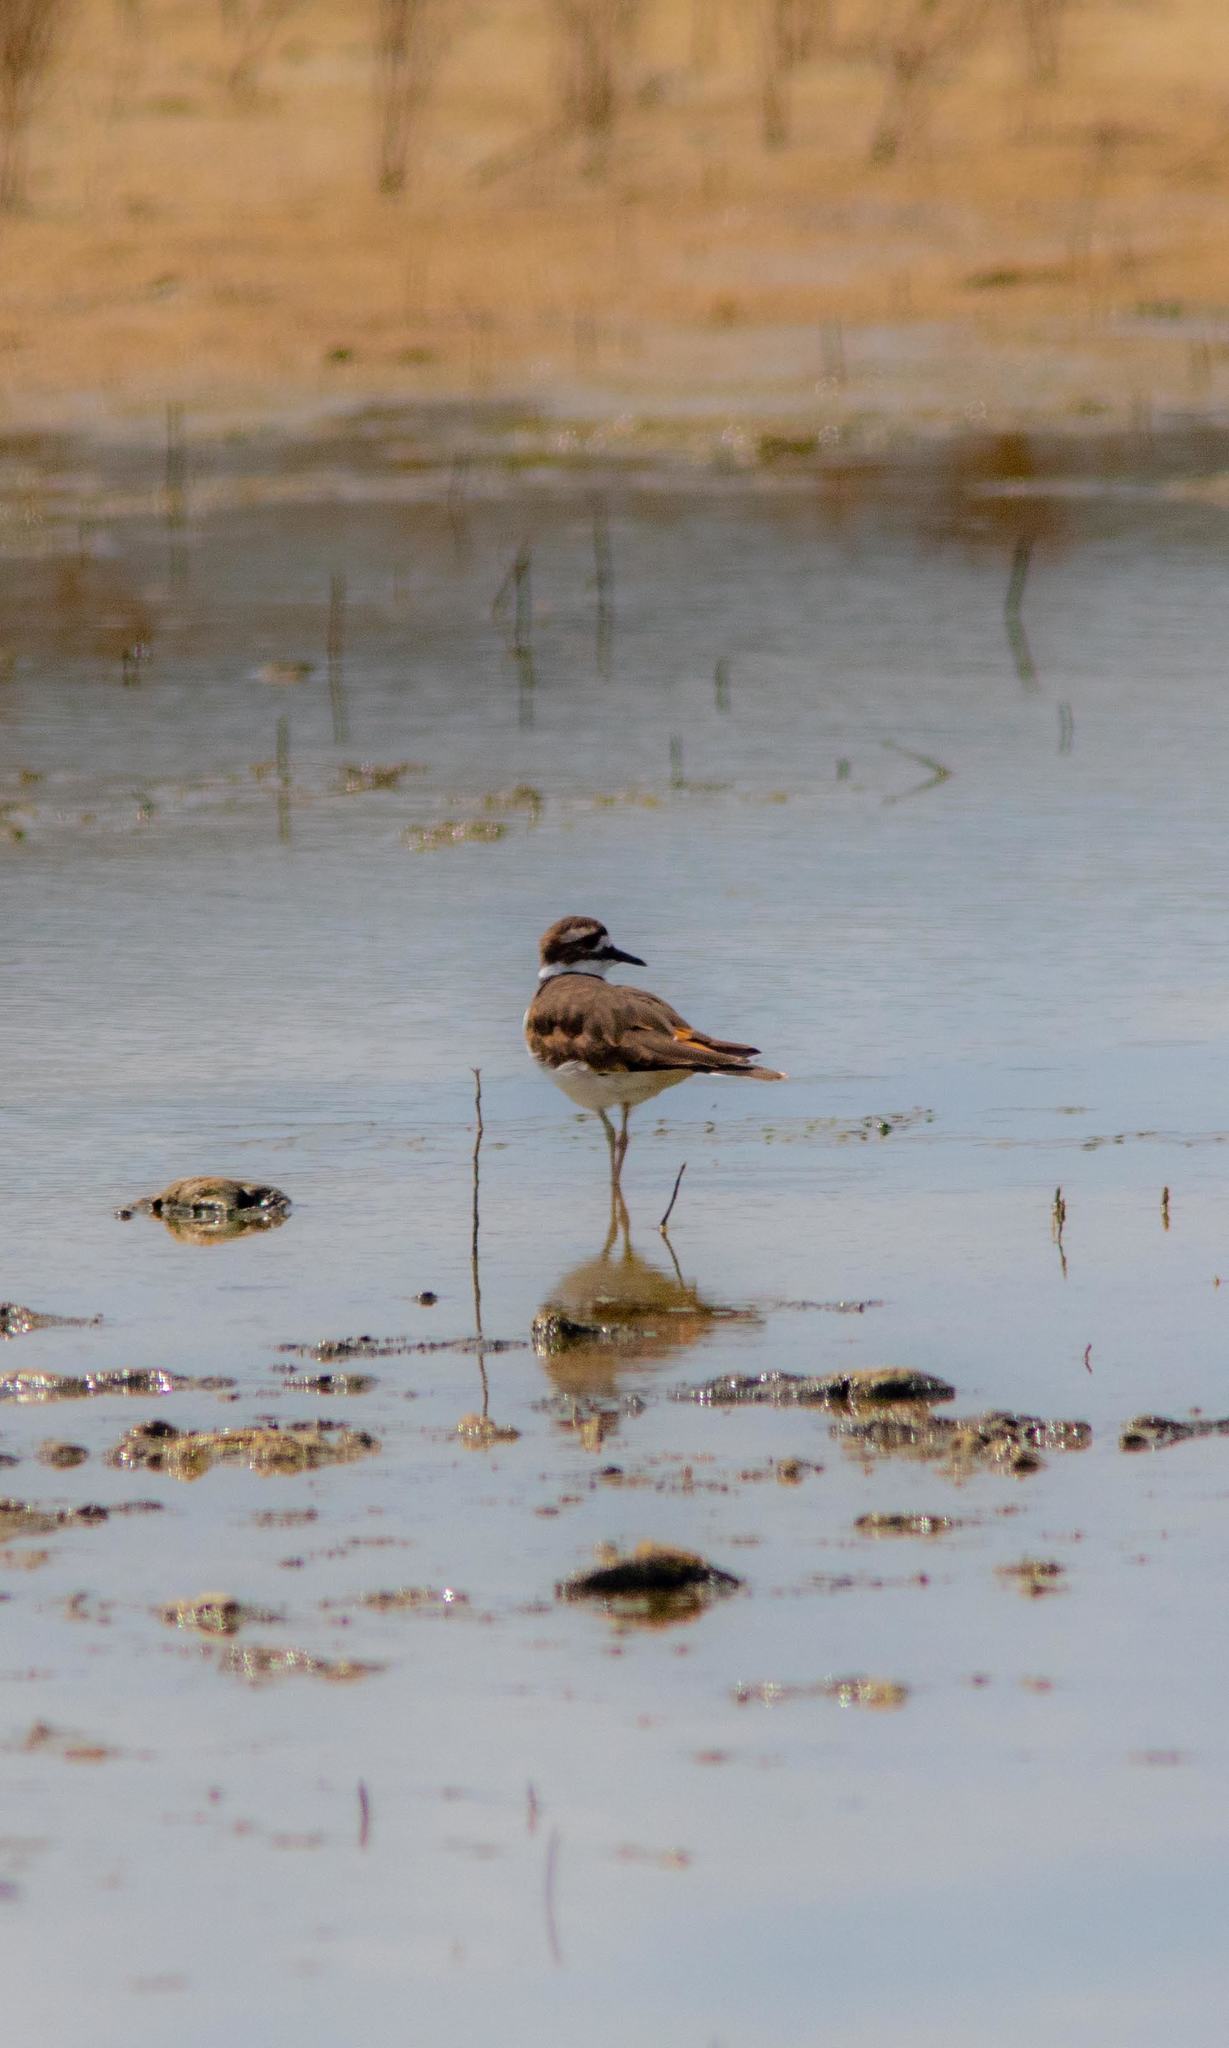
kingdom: Animalia
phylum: Chordata
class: Aves
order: Charadriiformes
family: Charadriidae
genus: Charadrius
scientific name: Charadrius vociferus
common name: Killdeer
